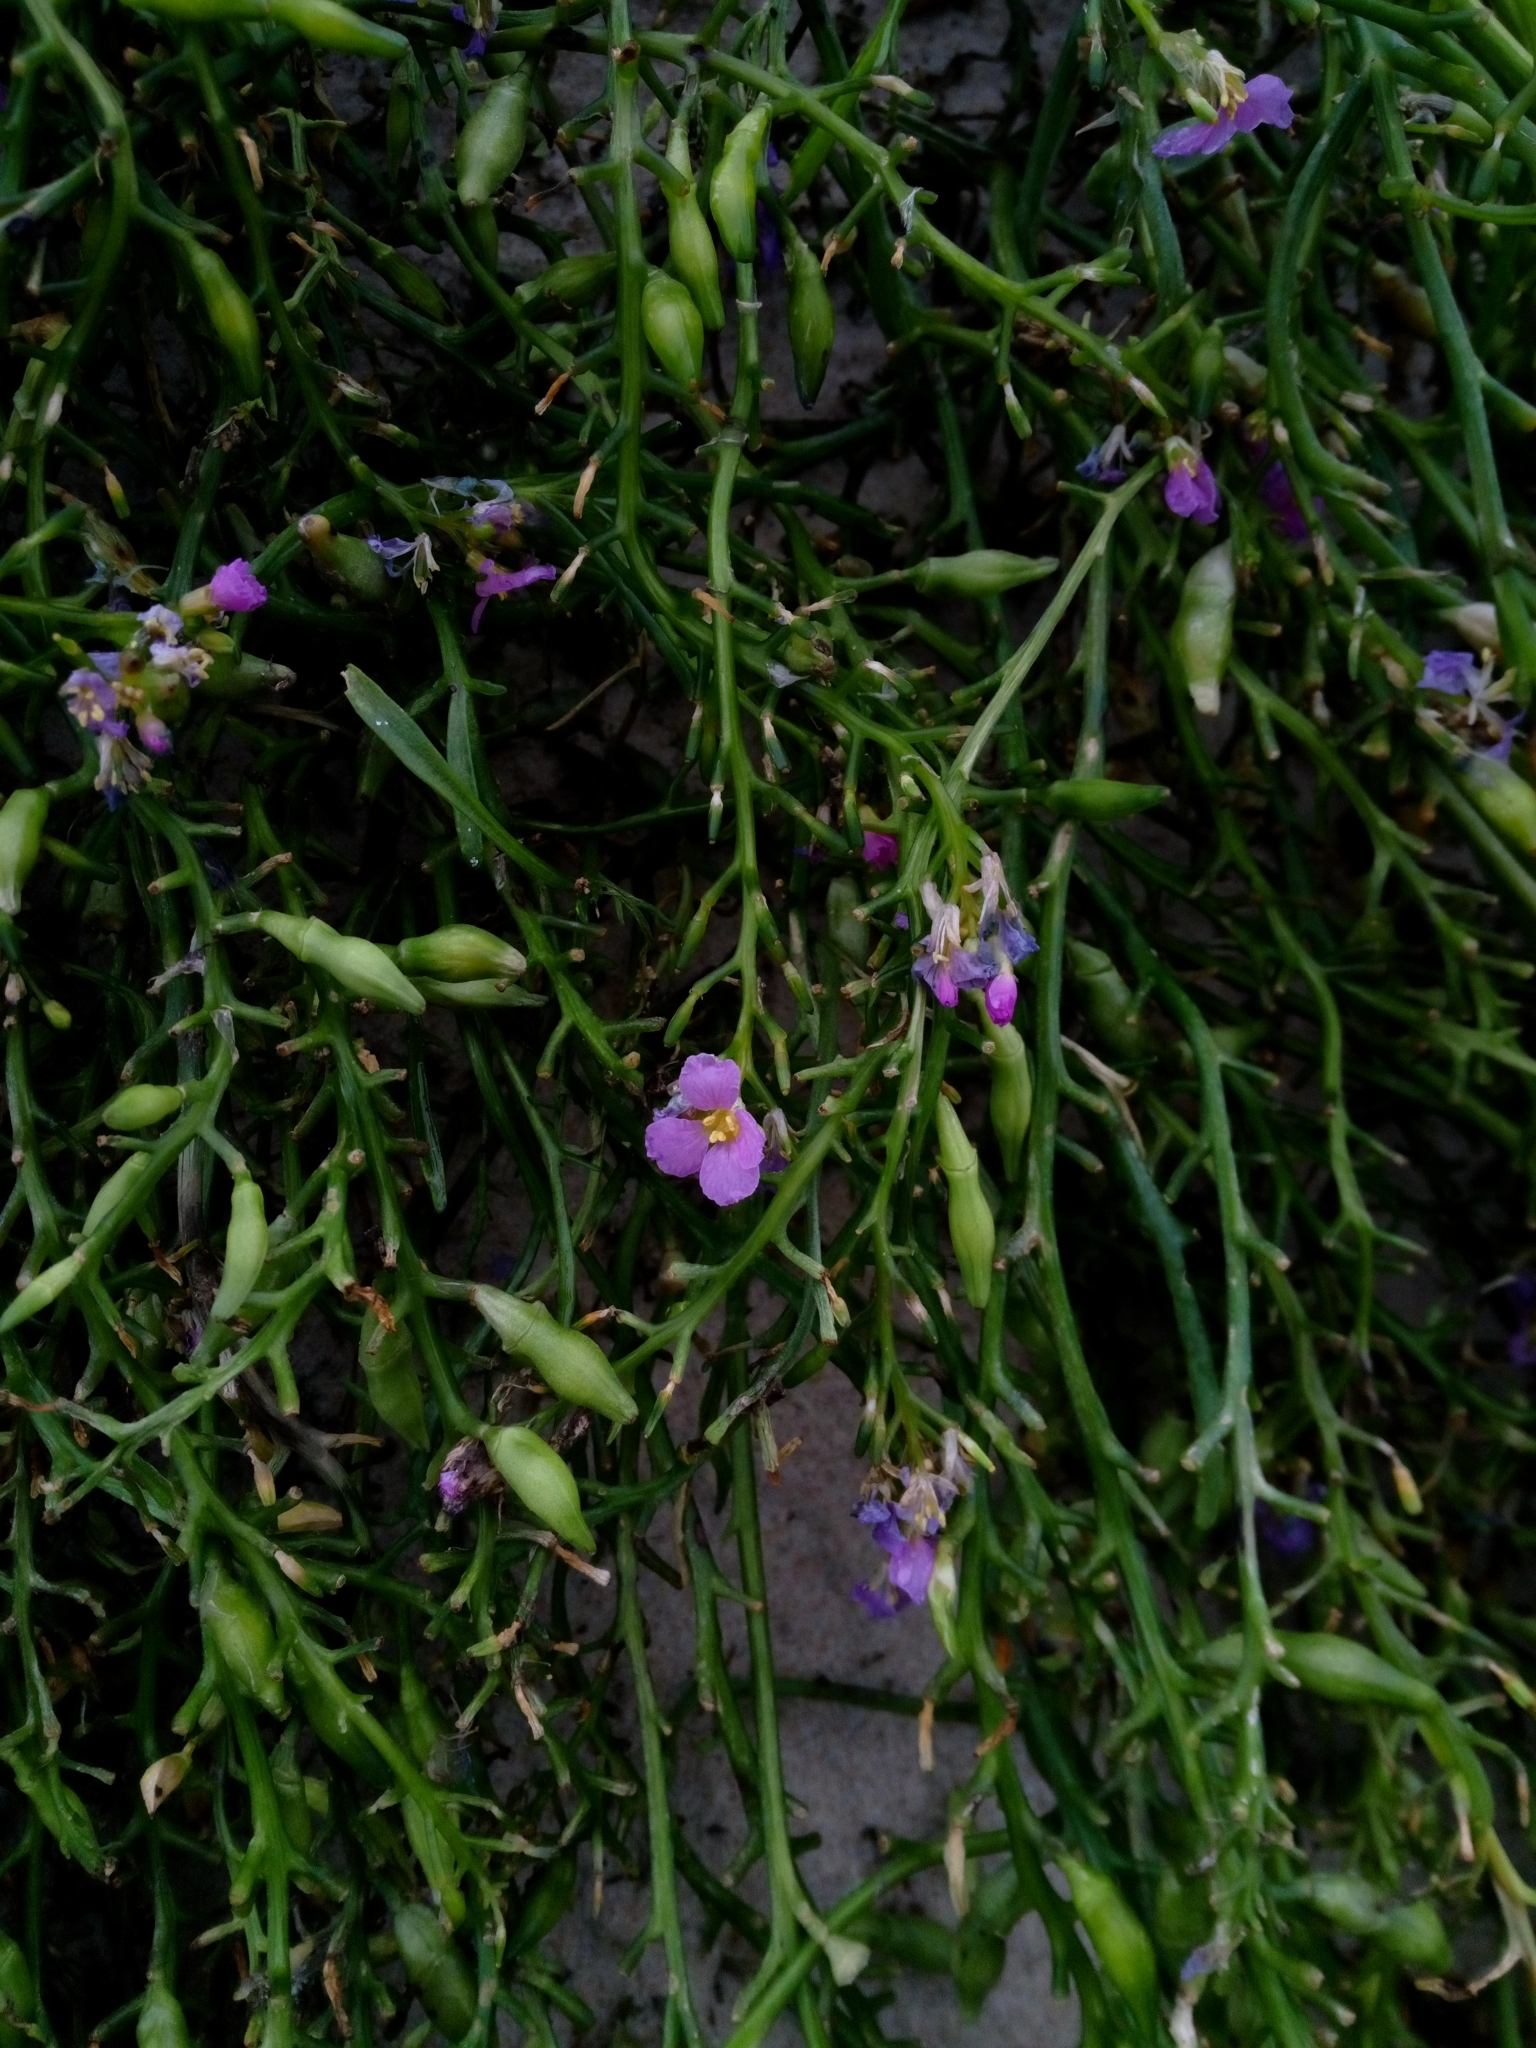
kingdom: Plantae
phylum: Tracheophyta
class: Magnoliopsida
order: Brassicales
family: Brassicaceae
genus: Cakile
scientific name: Cakile maritima
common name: Sea rocket
